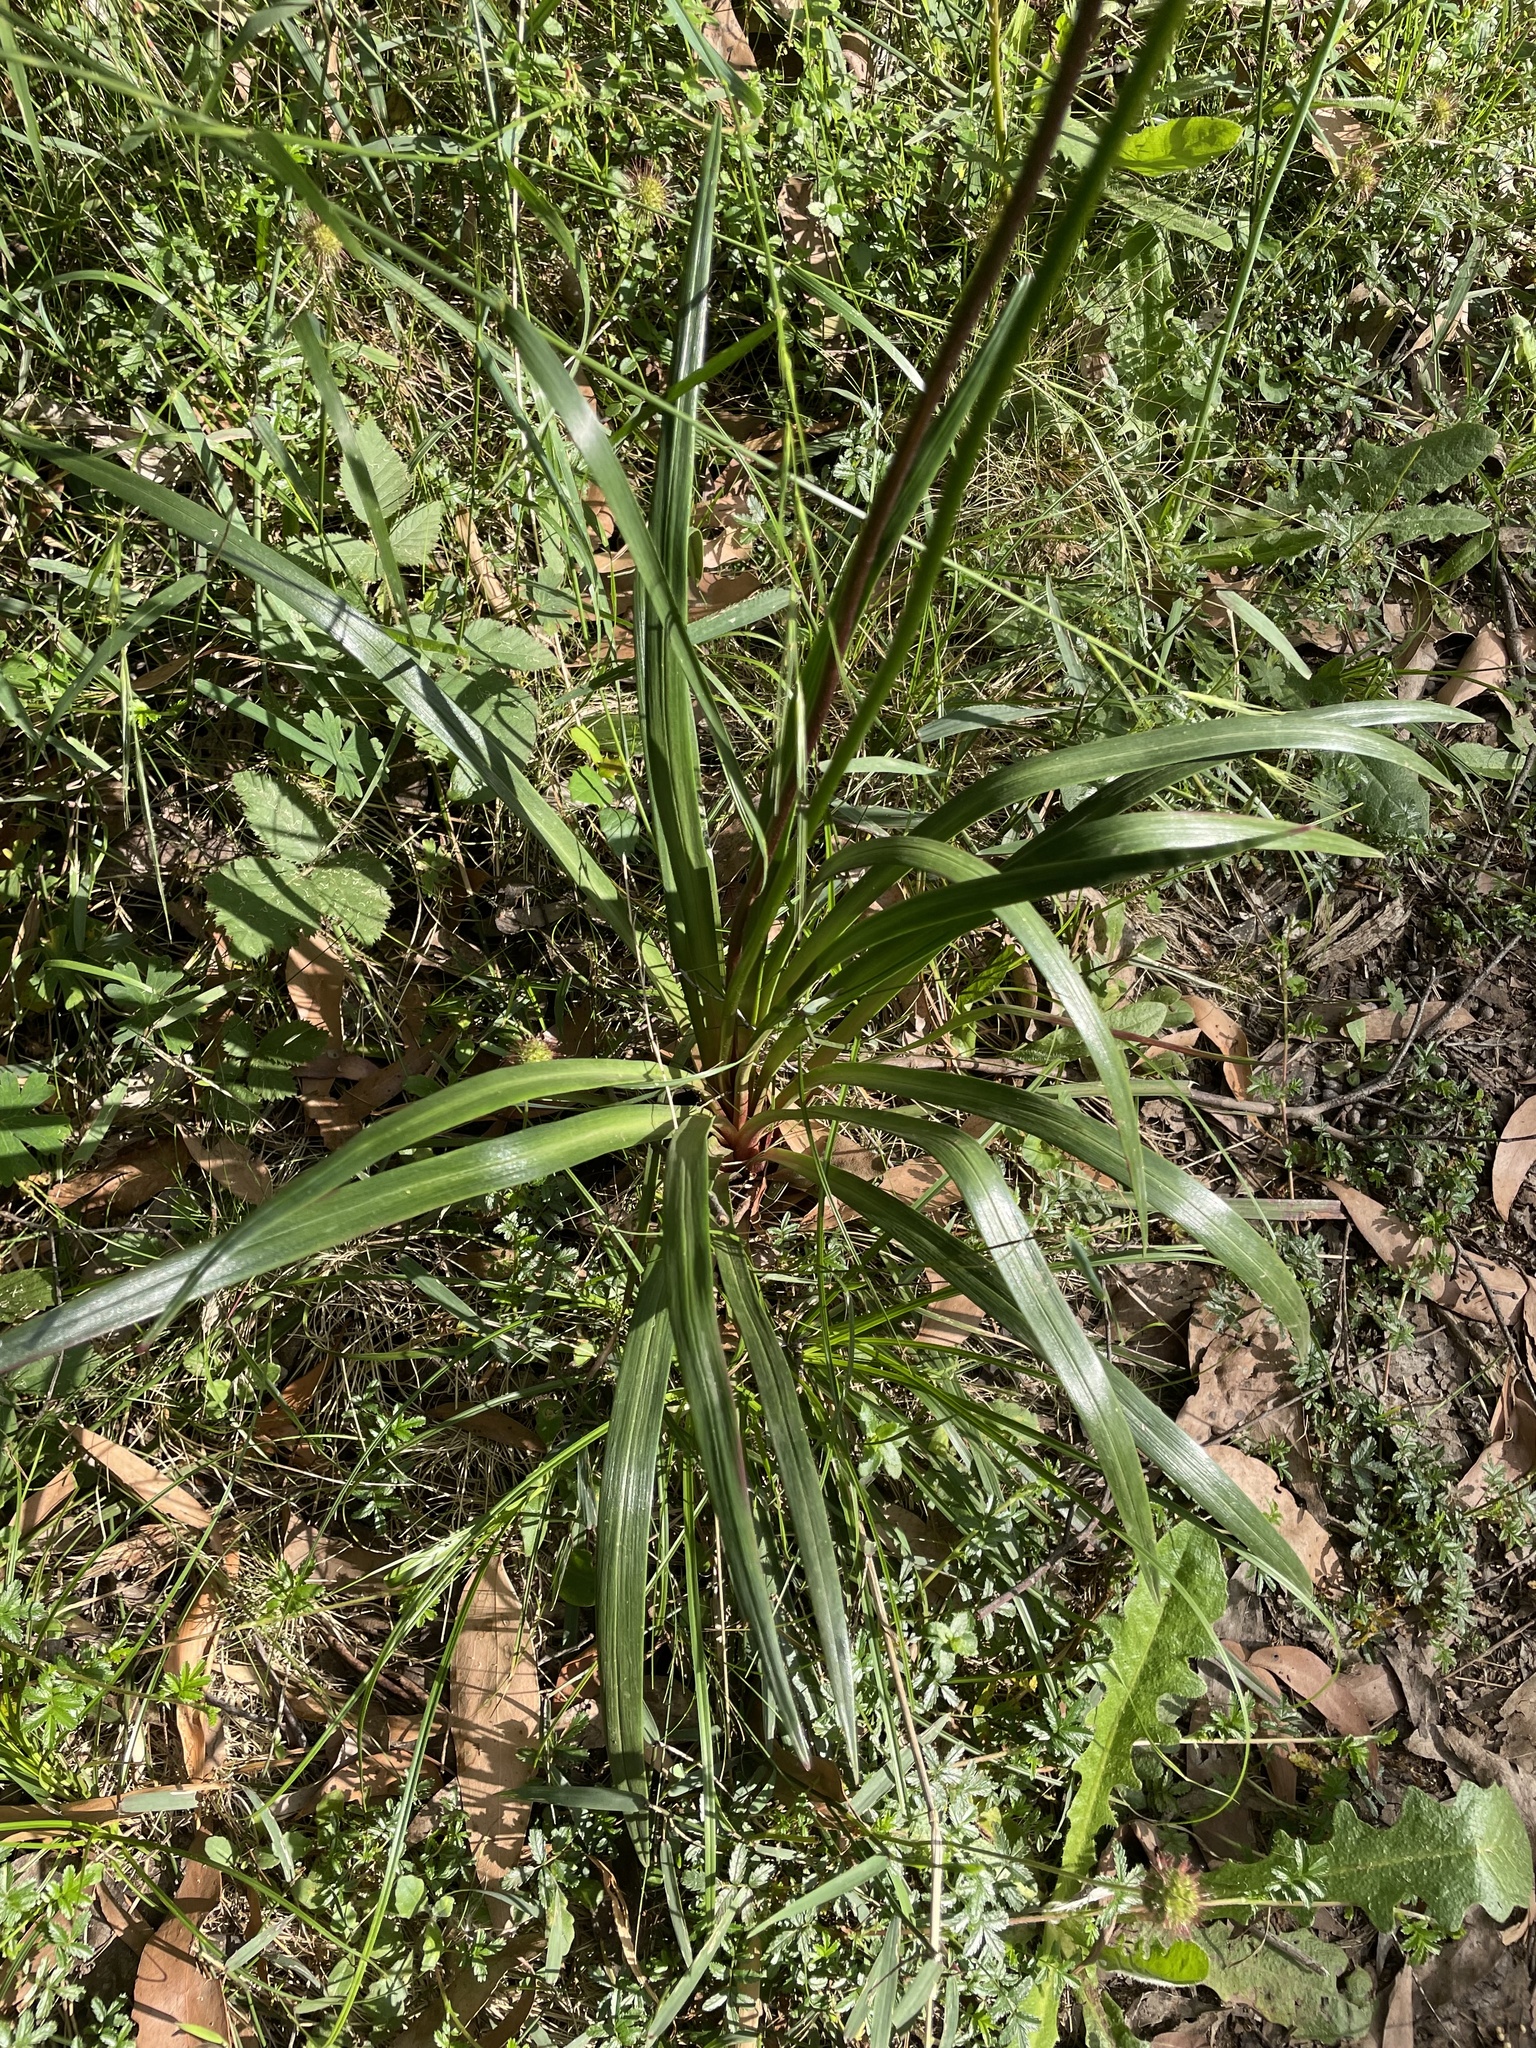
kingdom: Plantae
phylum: Tracheophyta
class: Magnoliopsida
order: Asterales
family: Stylidiaceae
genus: Stylidium
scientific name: Stylidium armeria
